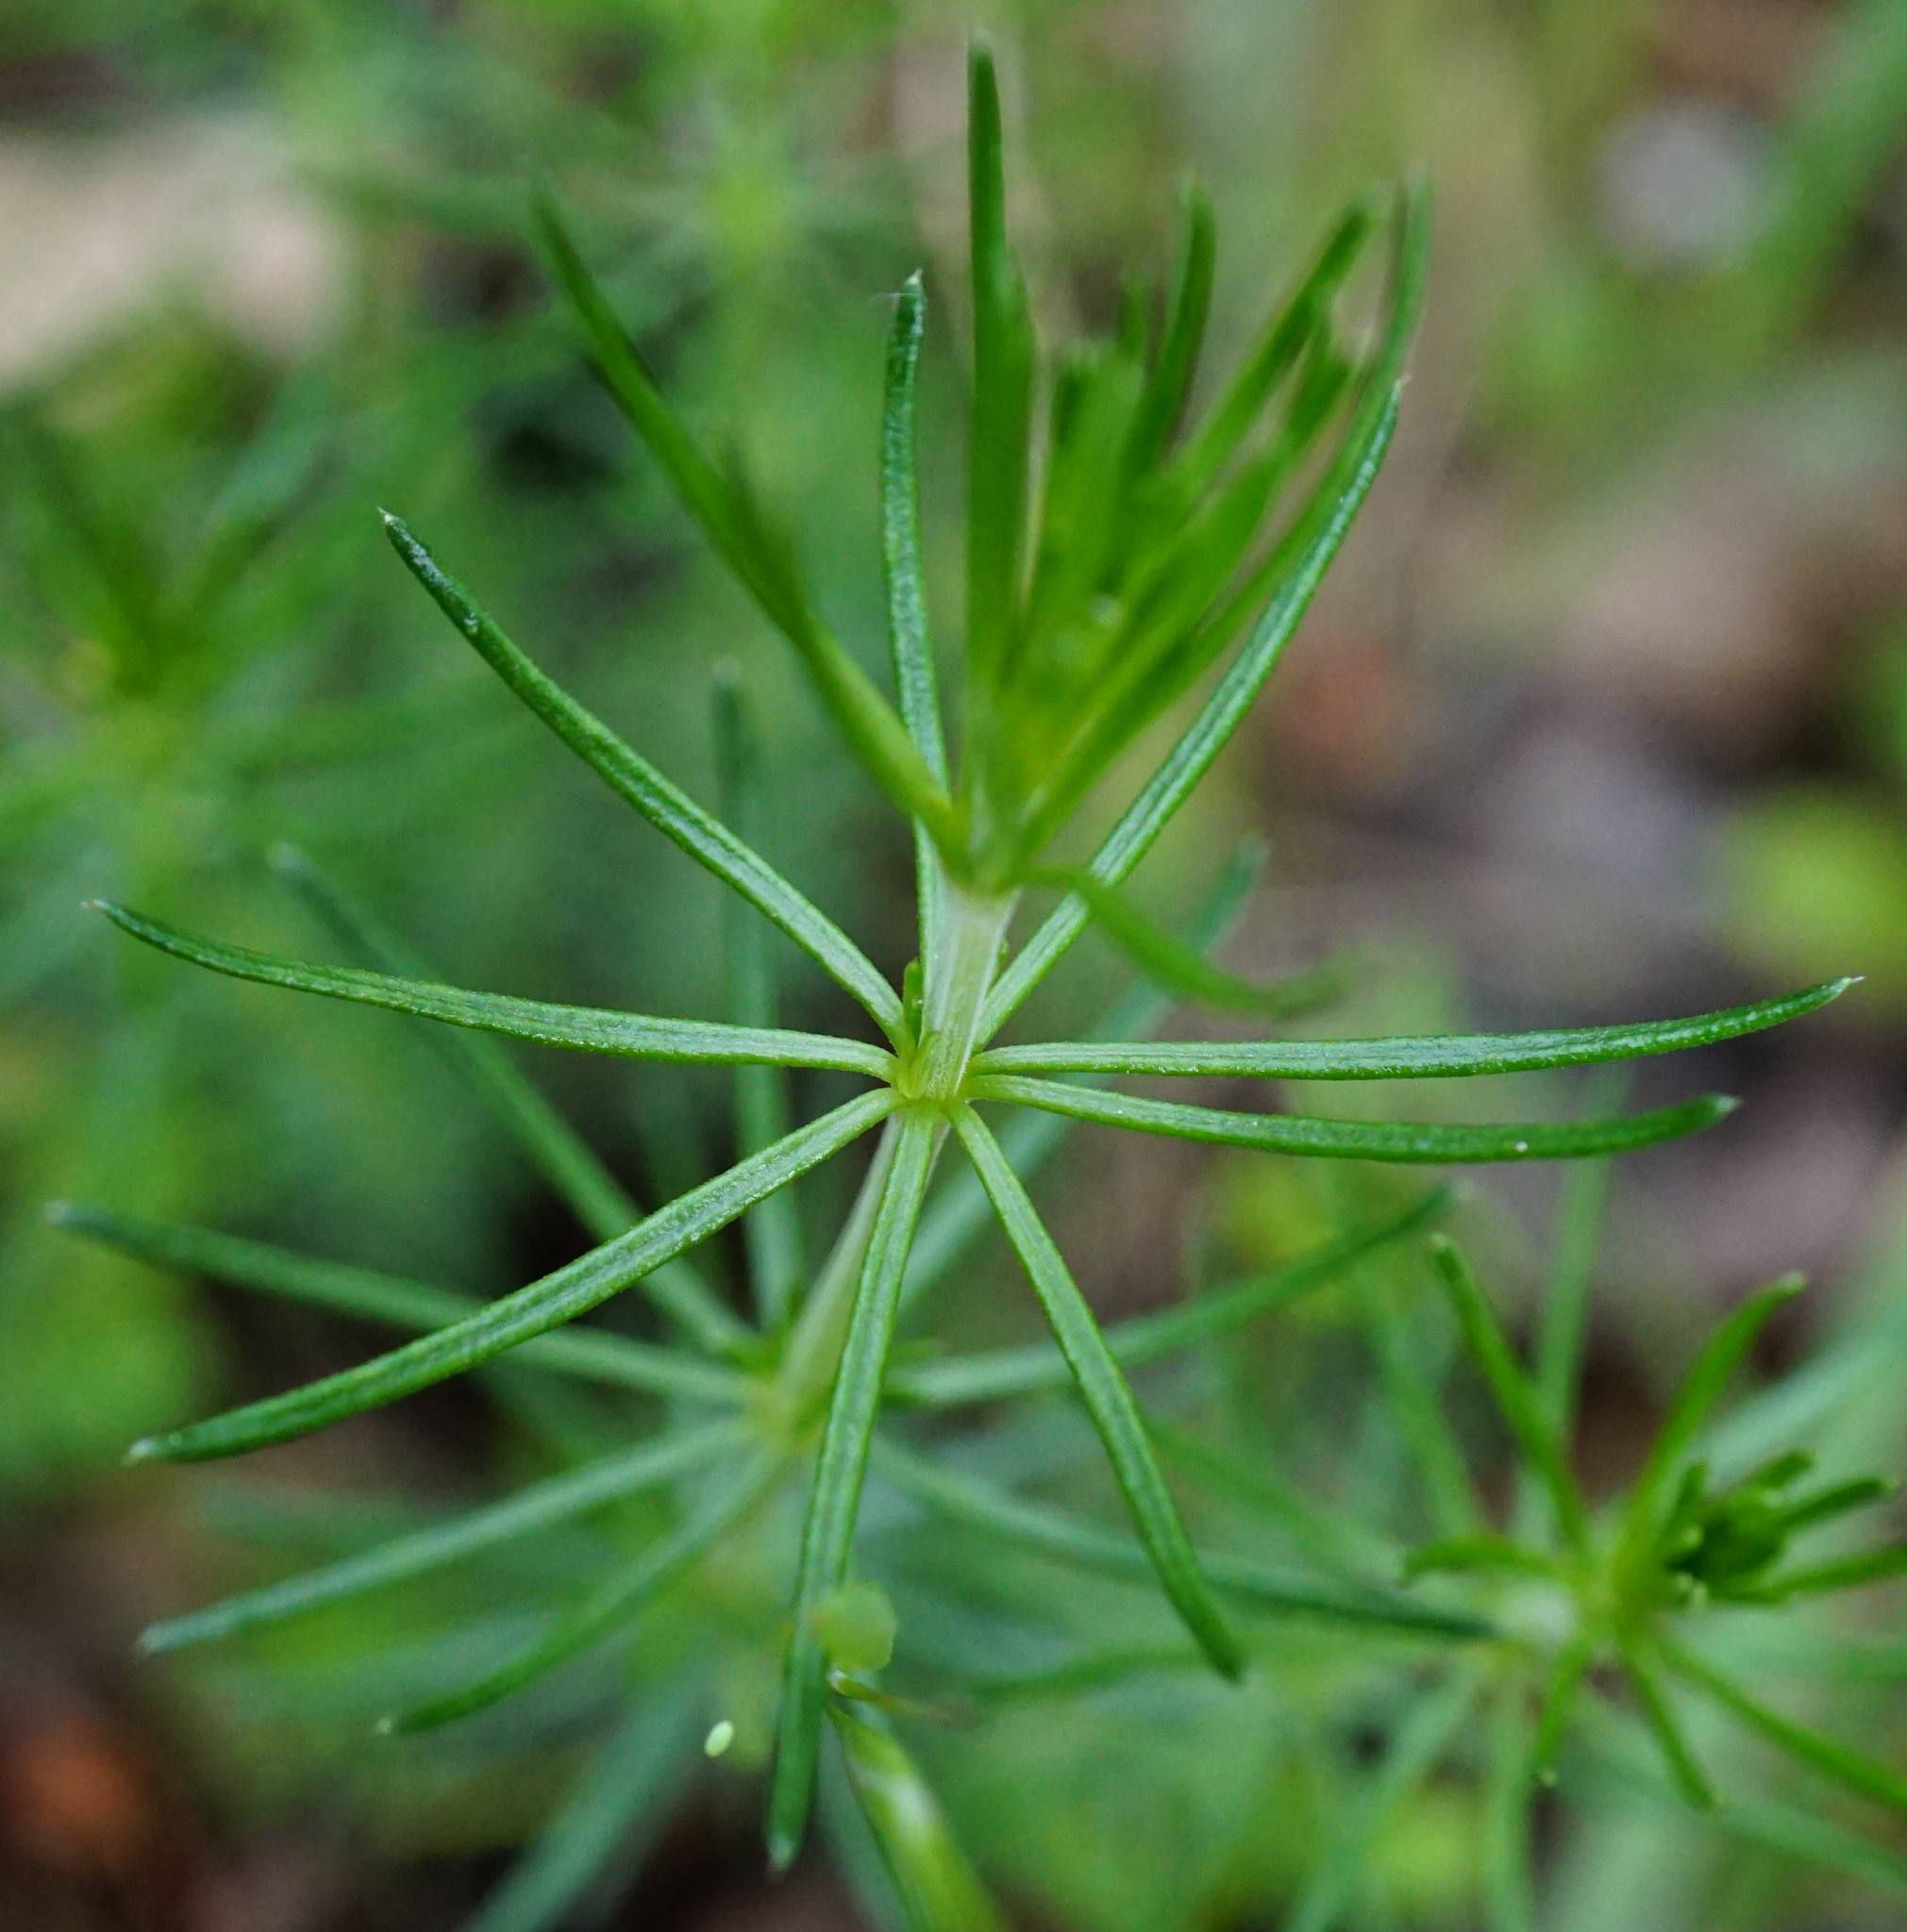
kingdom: Plantae
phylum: Tracheophyta
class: Magnoliopsida
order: Gentianales
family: Rubiaceae
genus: Galium
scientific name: Galium verum
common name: Lady's bedstraw
